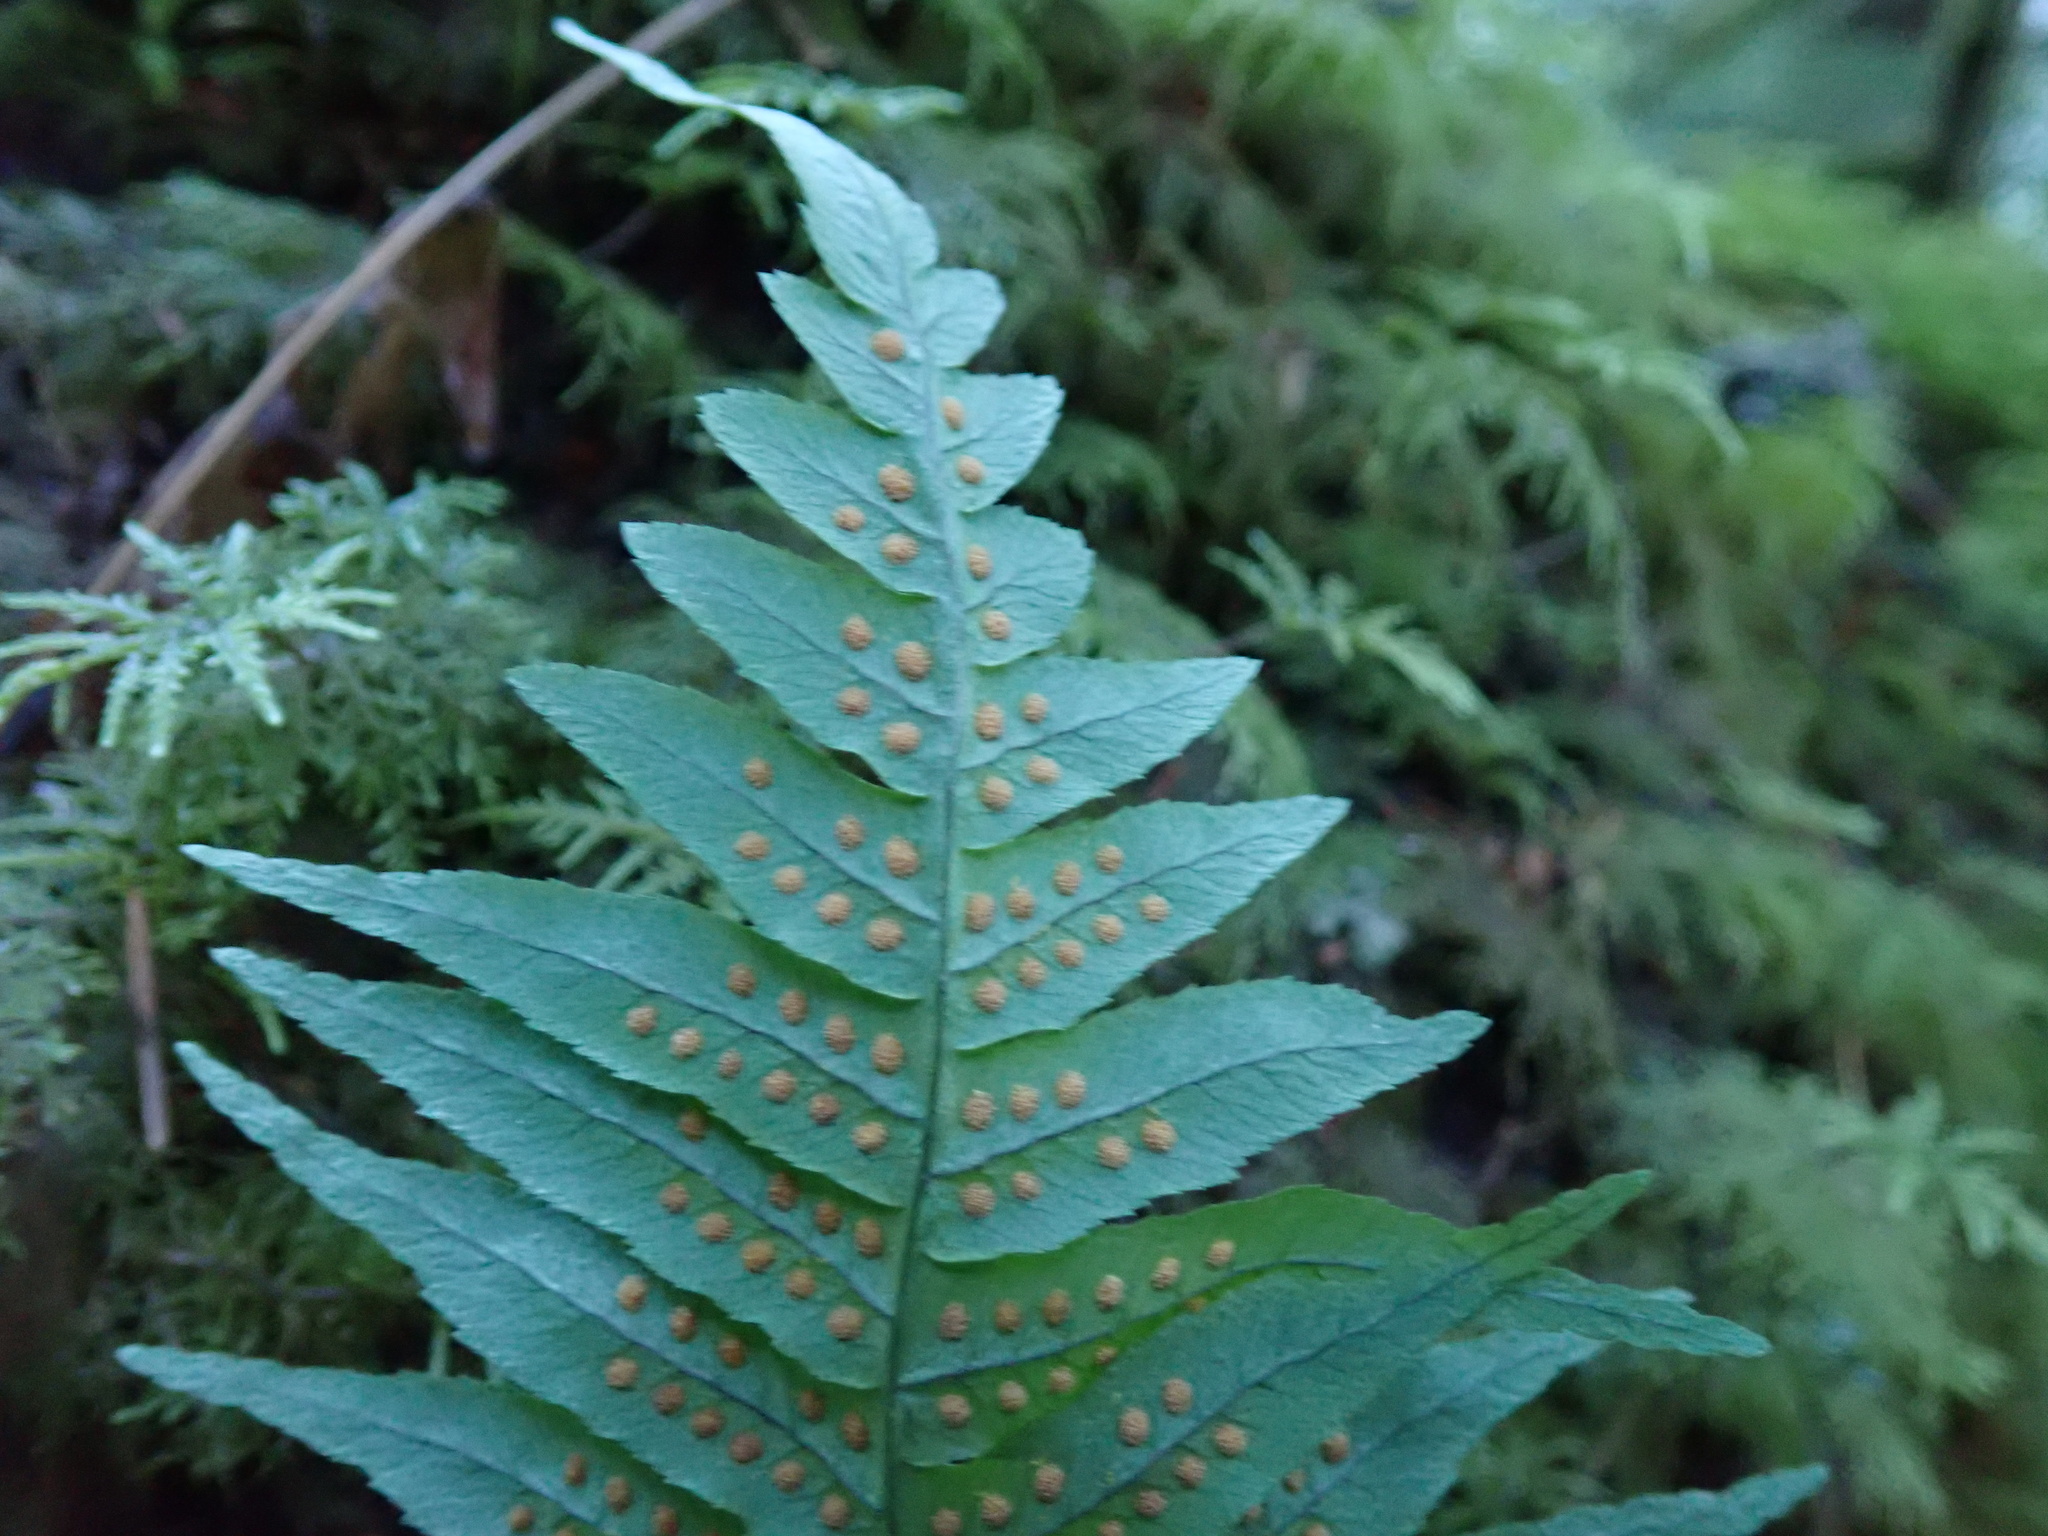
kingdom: Plantae
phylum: Tracheophyta
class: Polypodiopsida
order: Polypodiales
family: Polypodiaceae
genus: Polypodium
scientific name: Polypodium glycyrrhiza
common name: Licorice fern
